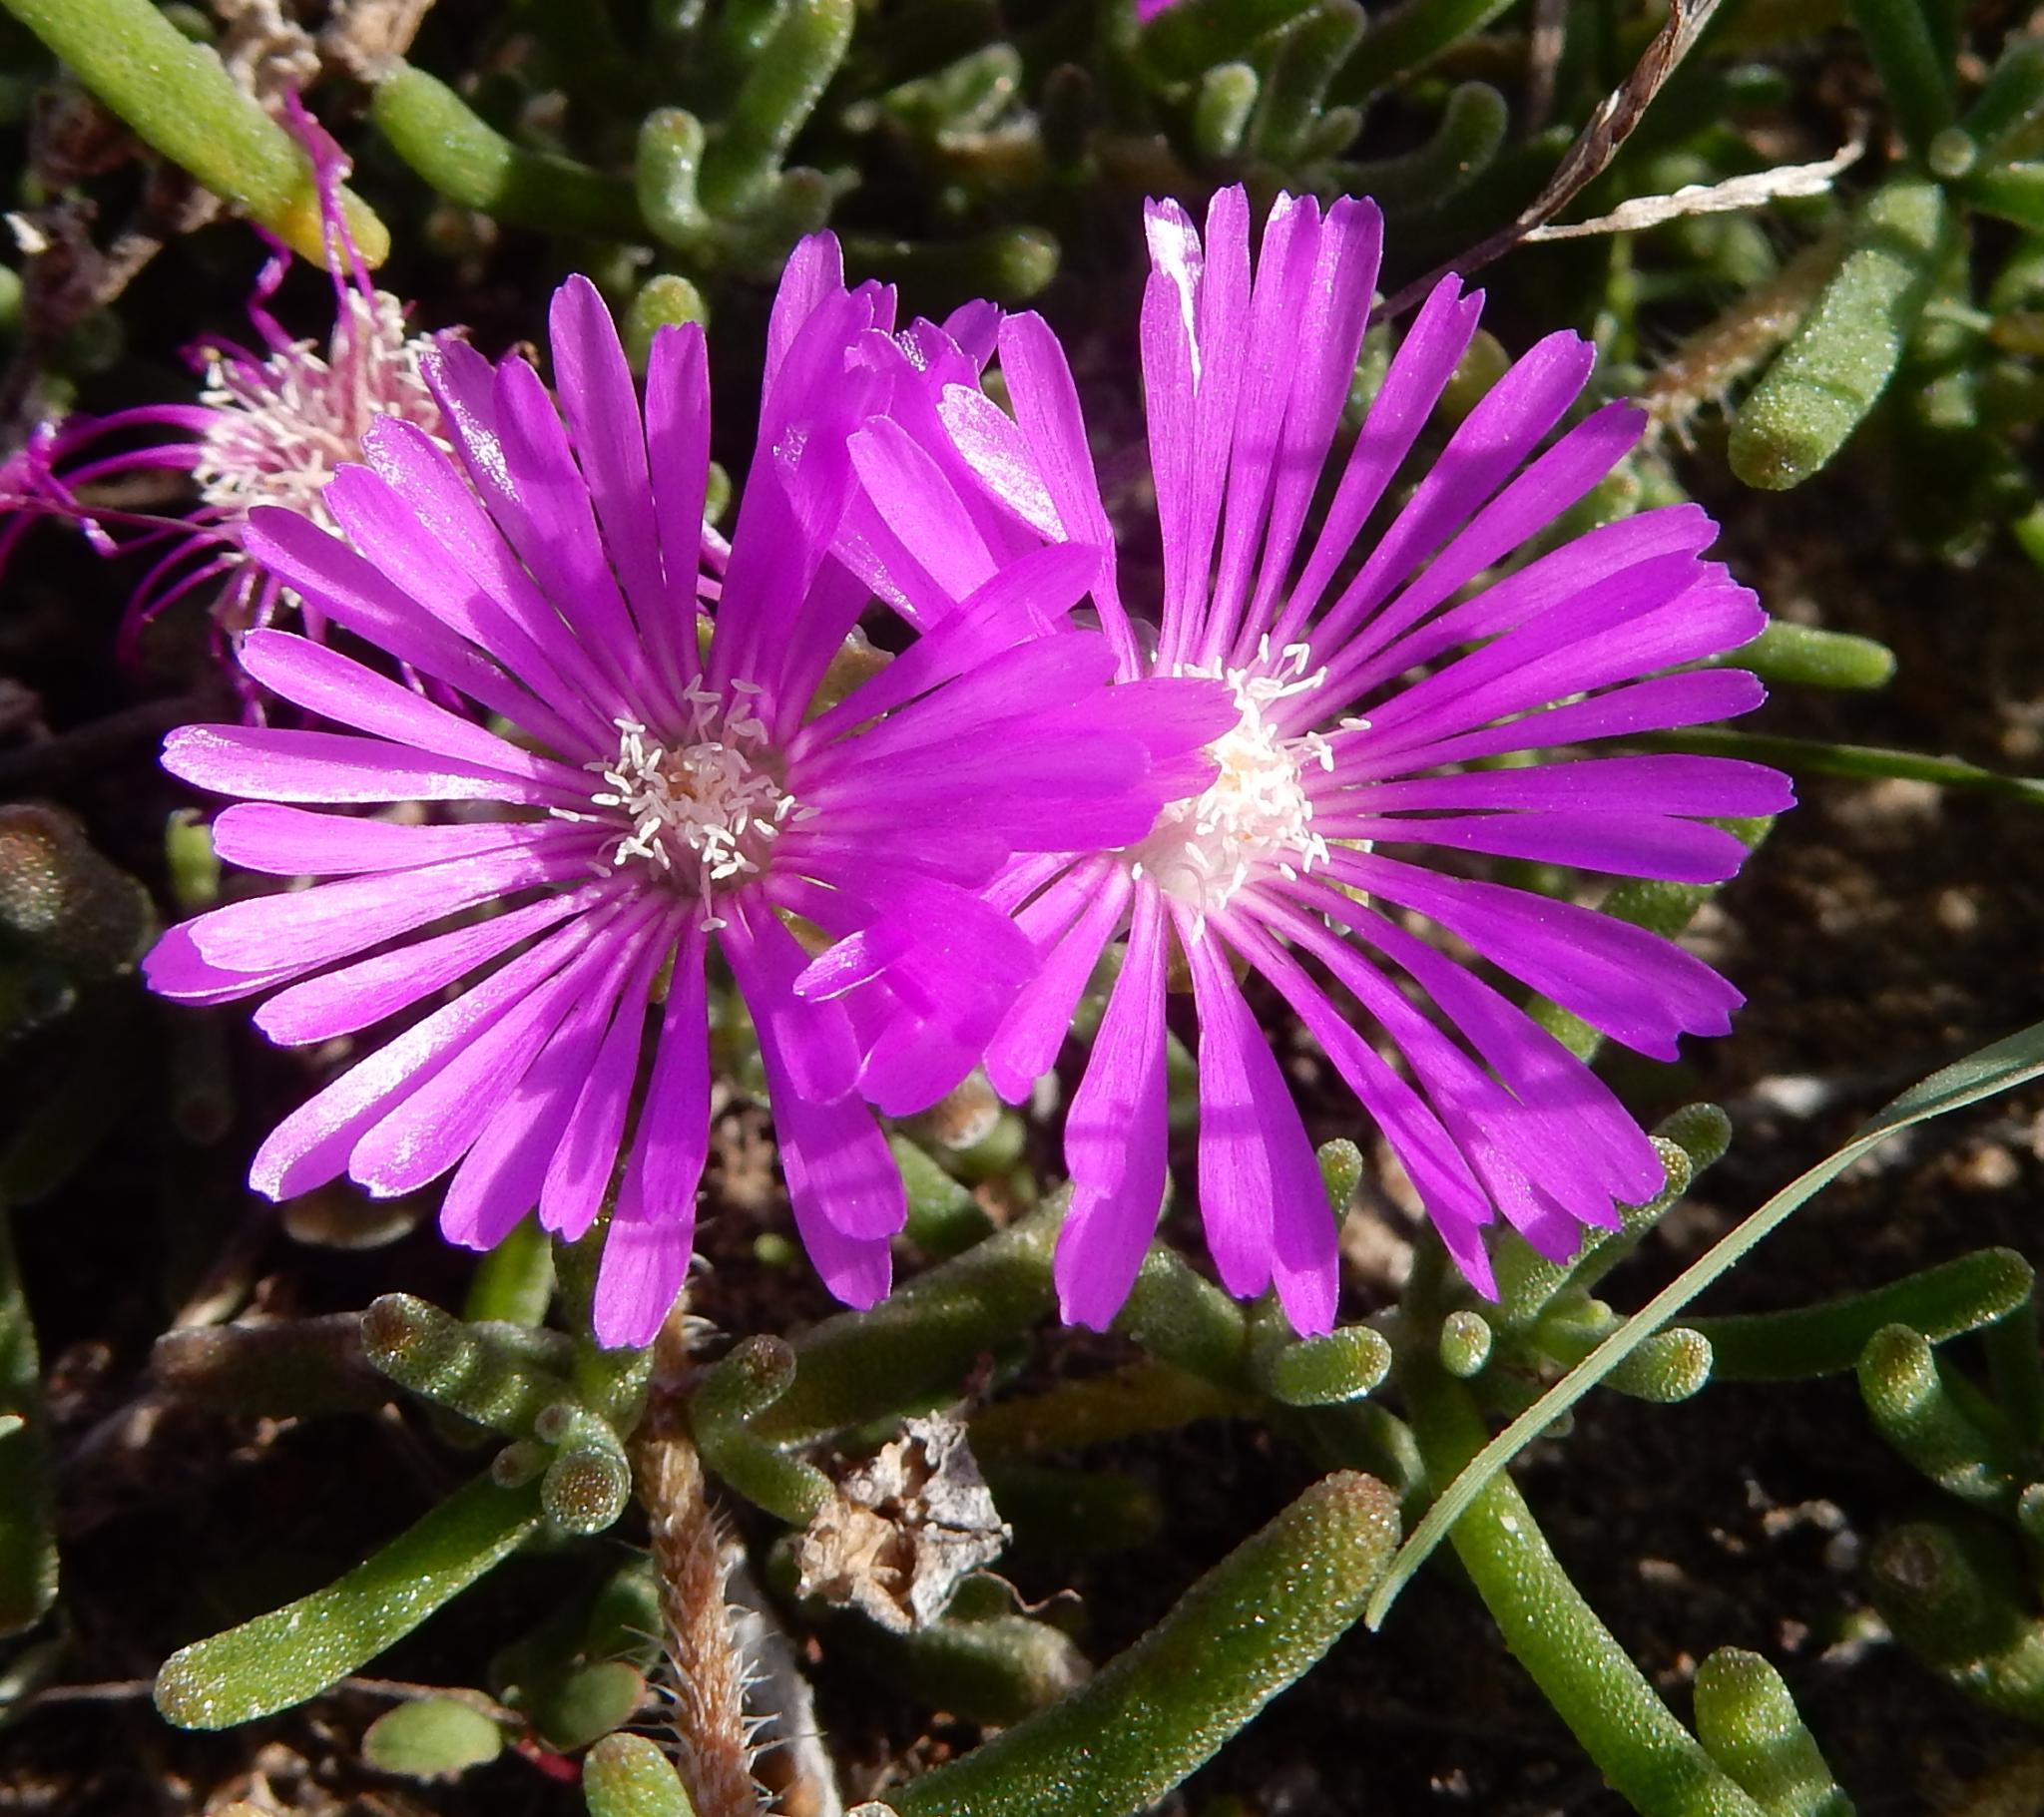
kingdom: Plantae
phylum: Tracheophyta
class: Magnoliopsida
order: Caryophyllales
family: Aizoaceae
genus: Drosanthemum
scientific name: Drosanthemum hispidum
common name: Hairy dewflower
